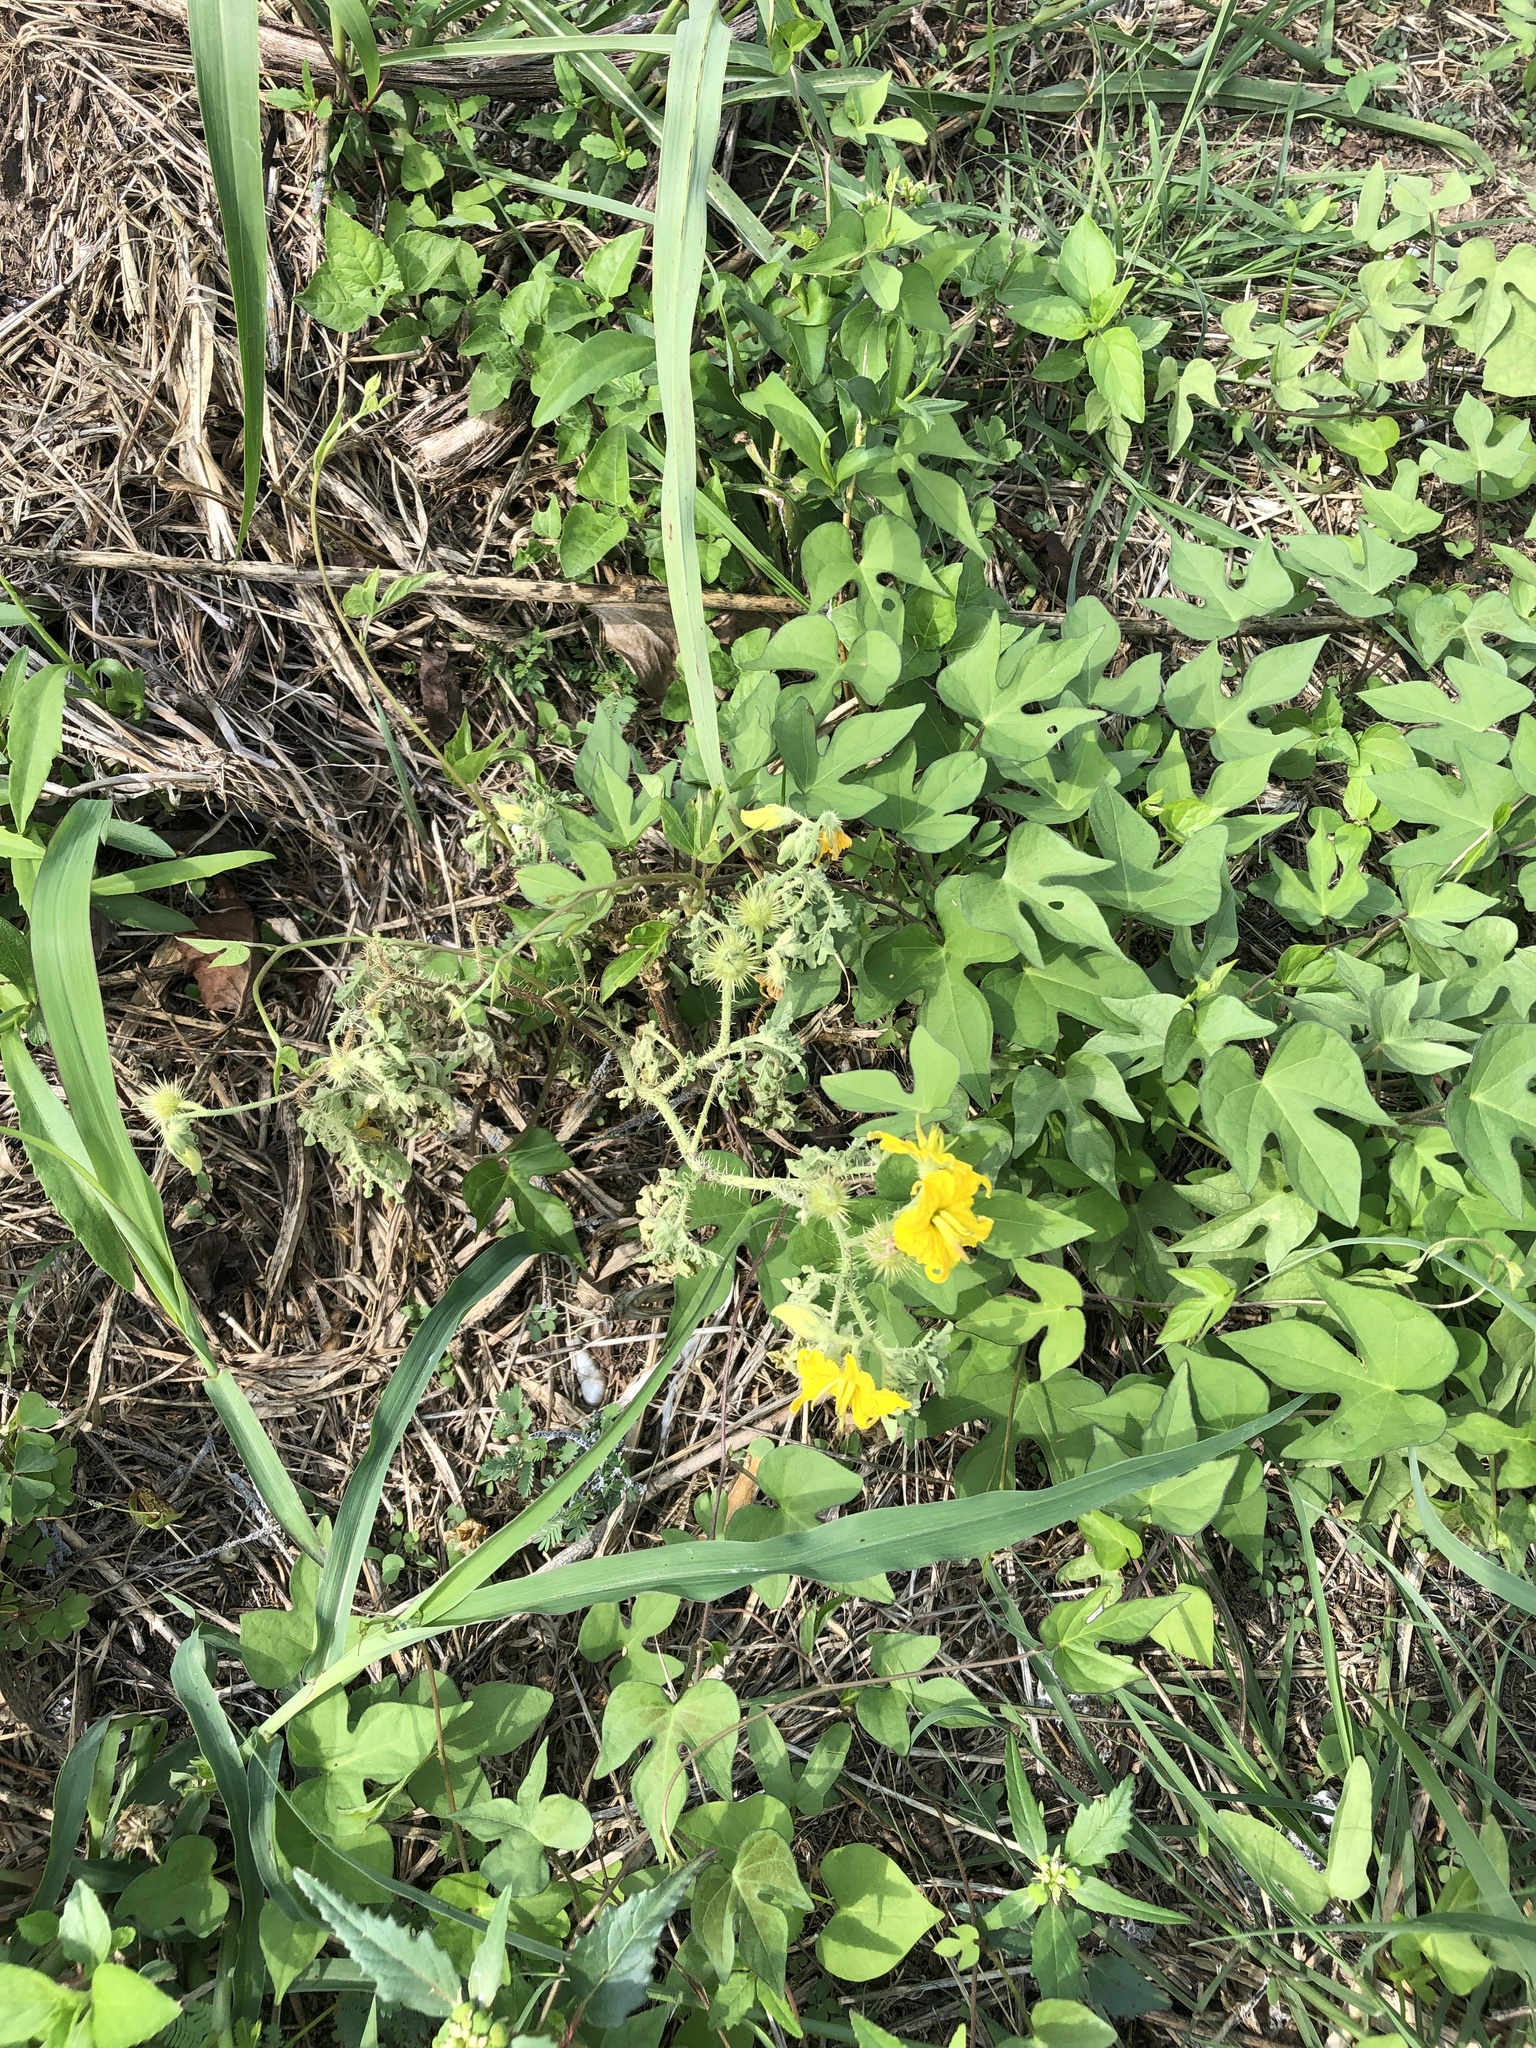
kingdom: Plantae
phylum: Tracheophyta
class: Magnoliopsida
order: Solanales
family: Solanaceae
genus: Solanum
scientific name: Solanum angustifolium
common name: Buffalobur nightshade
